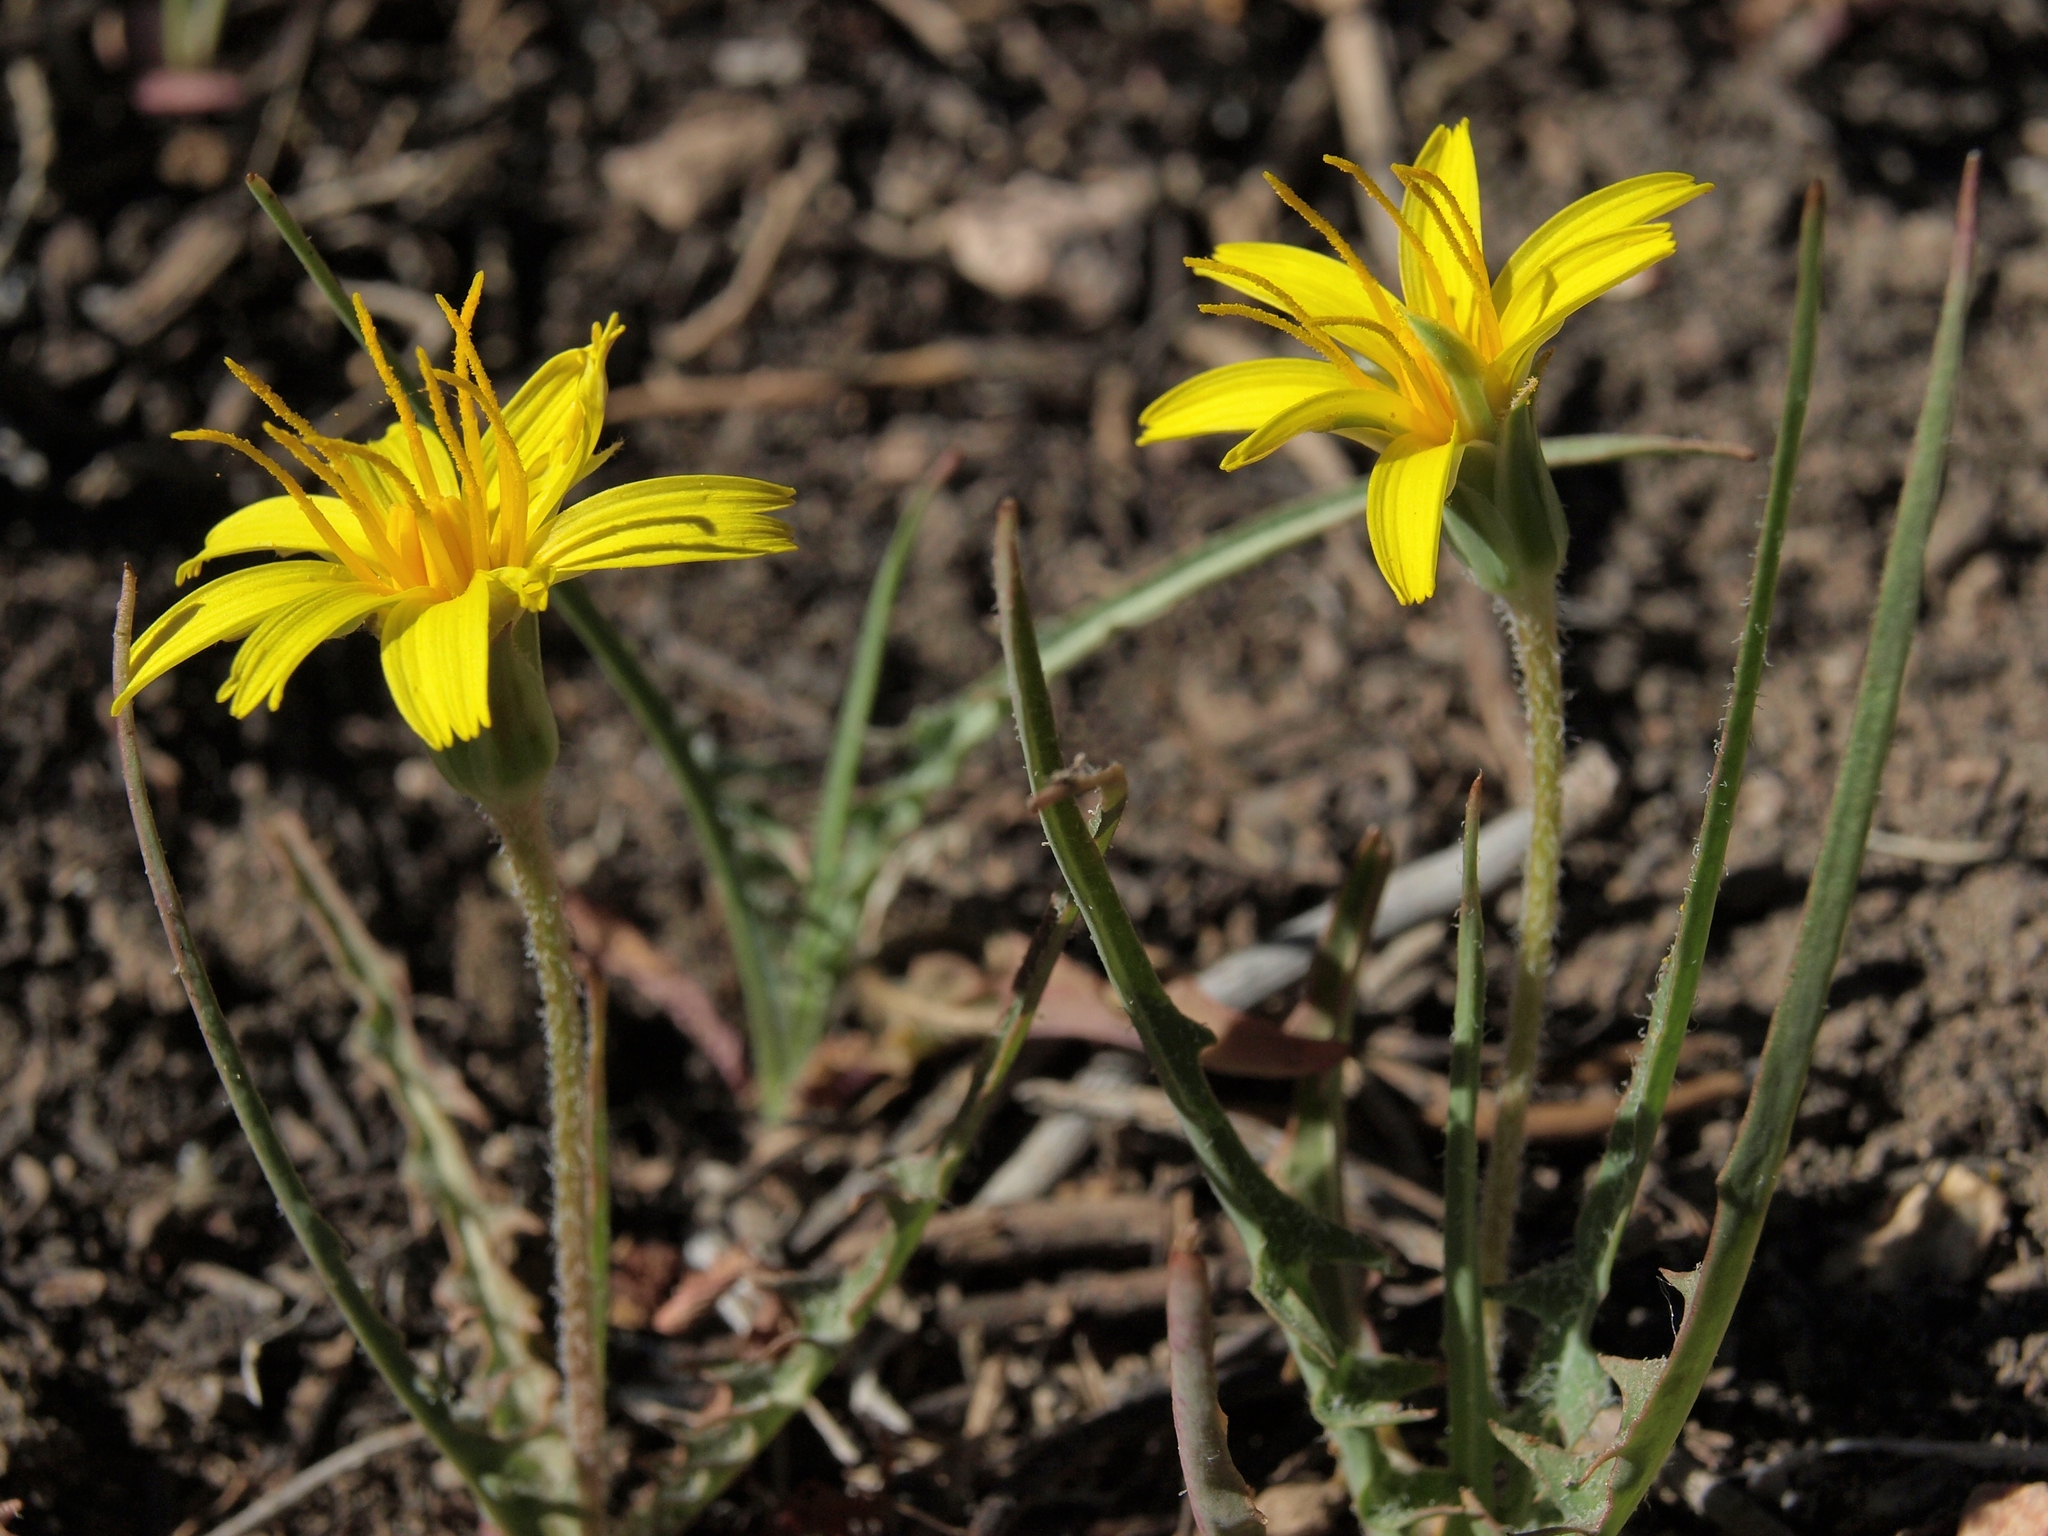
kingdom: Plantae
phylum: Tracheophyta
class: Magnoliopsida
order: Asterales
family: Asteraceae
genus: Agoseris
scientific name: Agoseris parviflora
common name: Steppe agoseris
